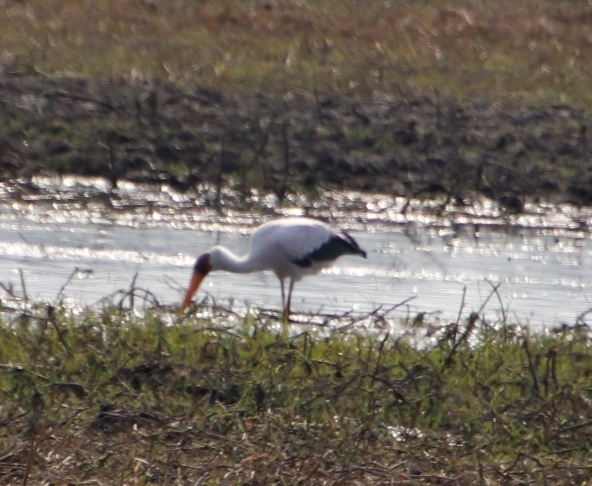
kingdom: Animalia
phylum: Chordata
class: Aves
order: Ciconiiformes
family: Ciconiidae
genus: Mycteria
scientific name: Mycteria ibis
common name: Yellow-billed stork
